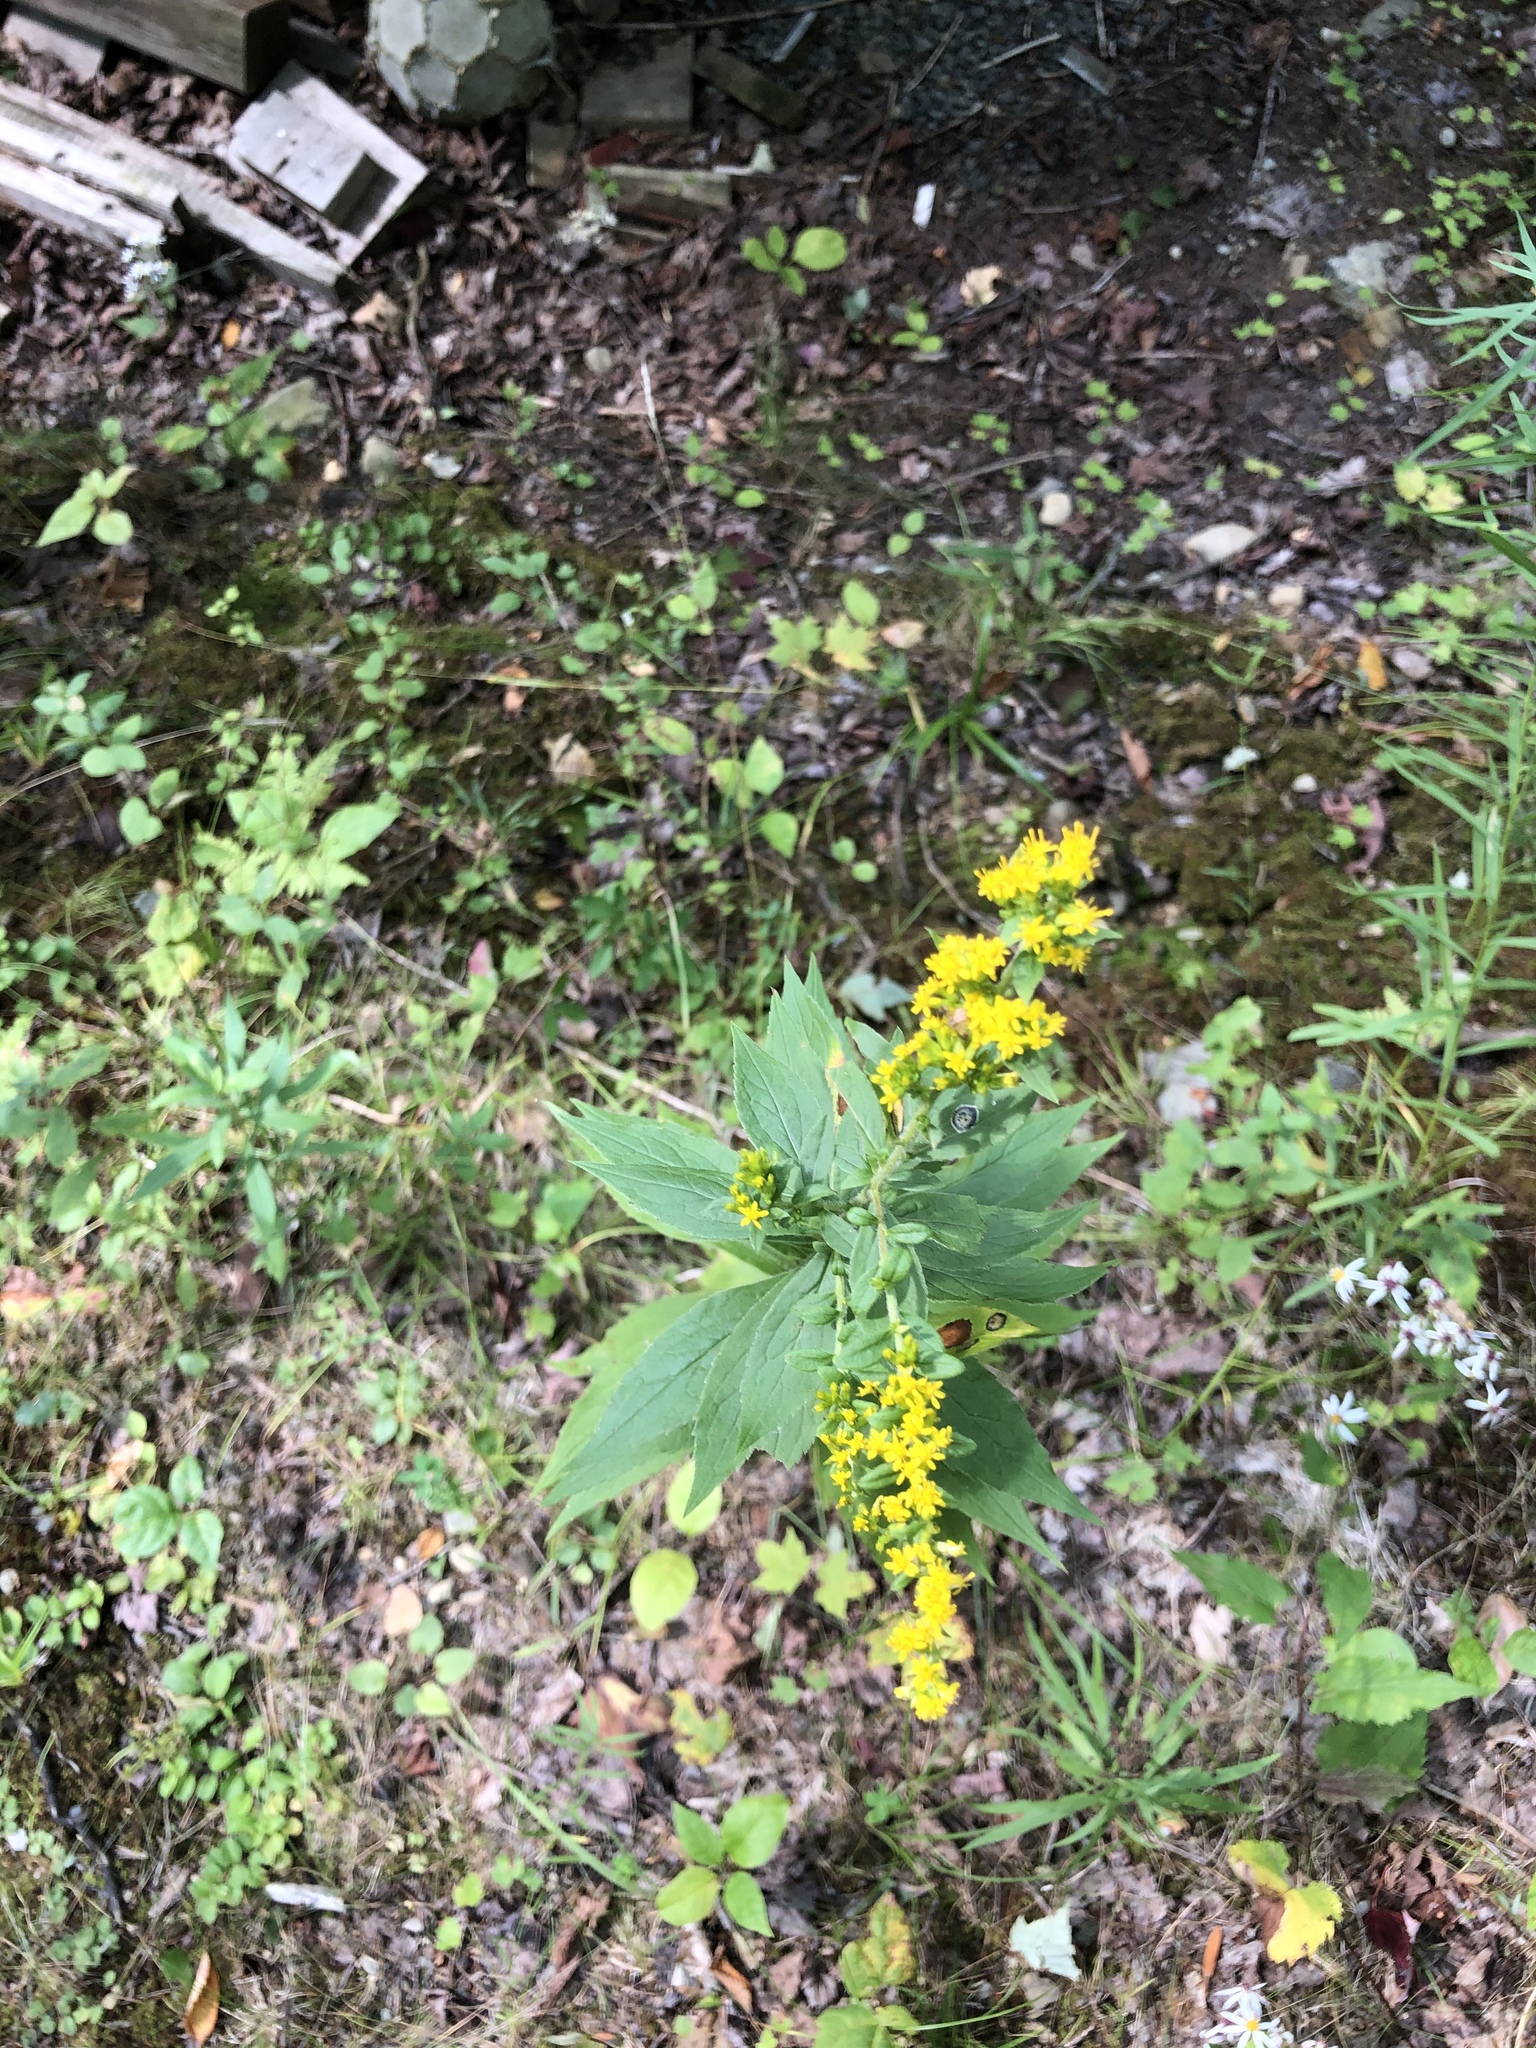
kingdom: Plantae
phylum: Tracheophyta
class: Magnoliopsida
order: Asterales
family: Asteraceae
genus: Solidago
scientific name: Solidago rugosa
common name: Rough-stemmed goldenrod
